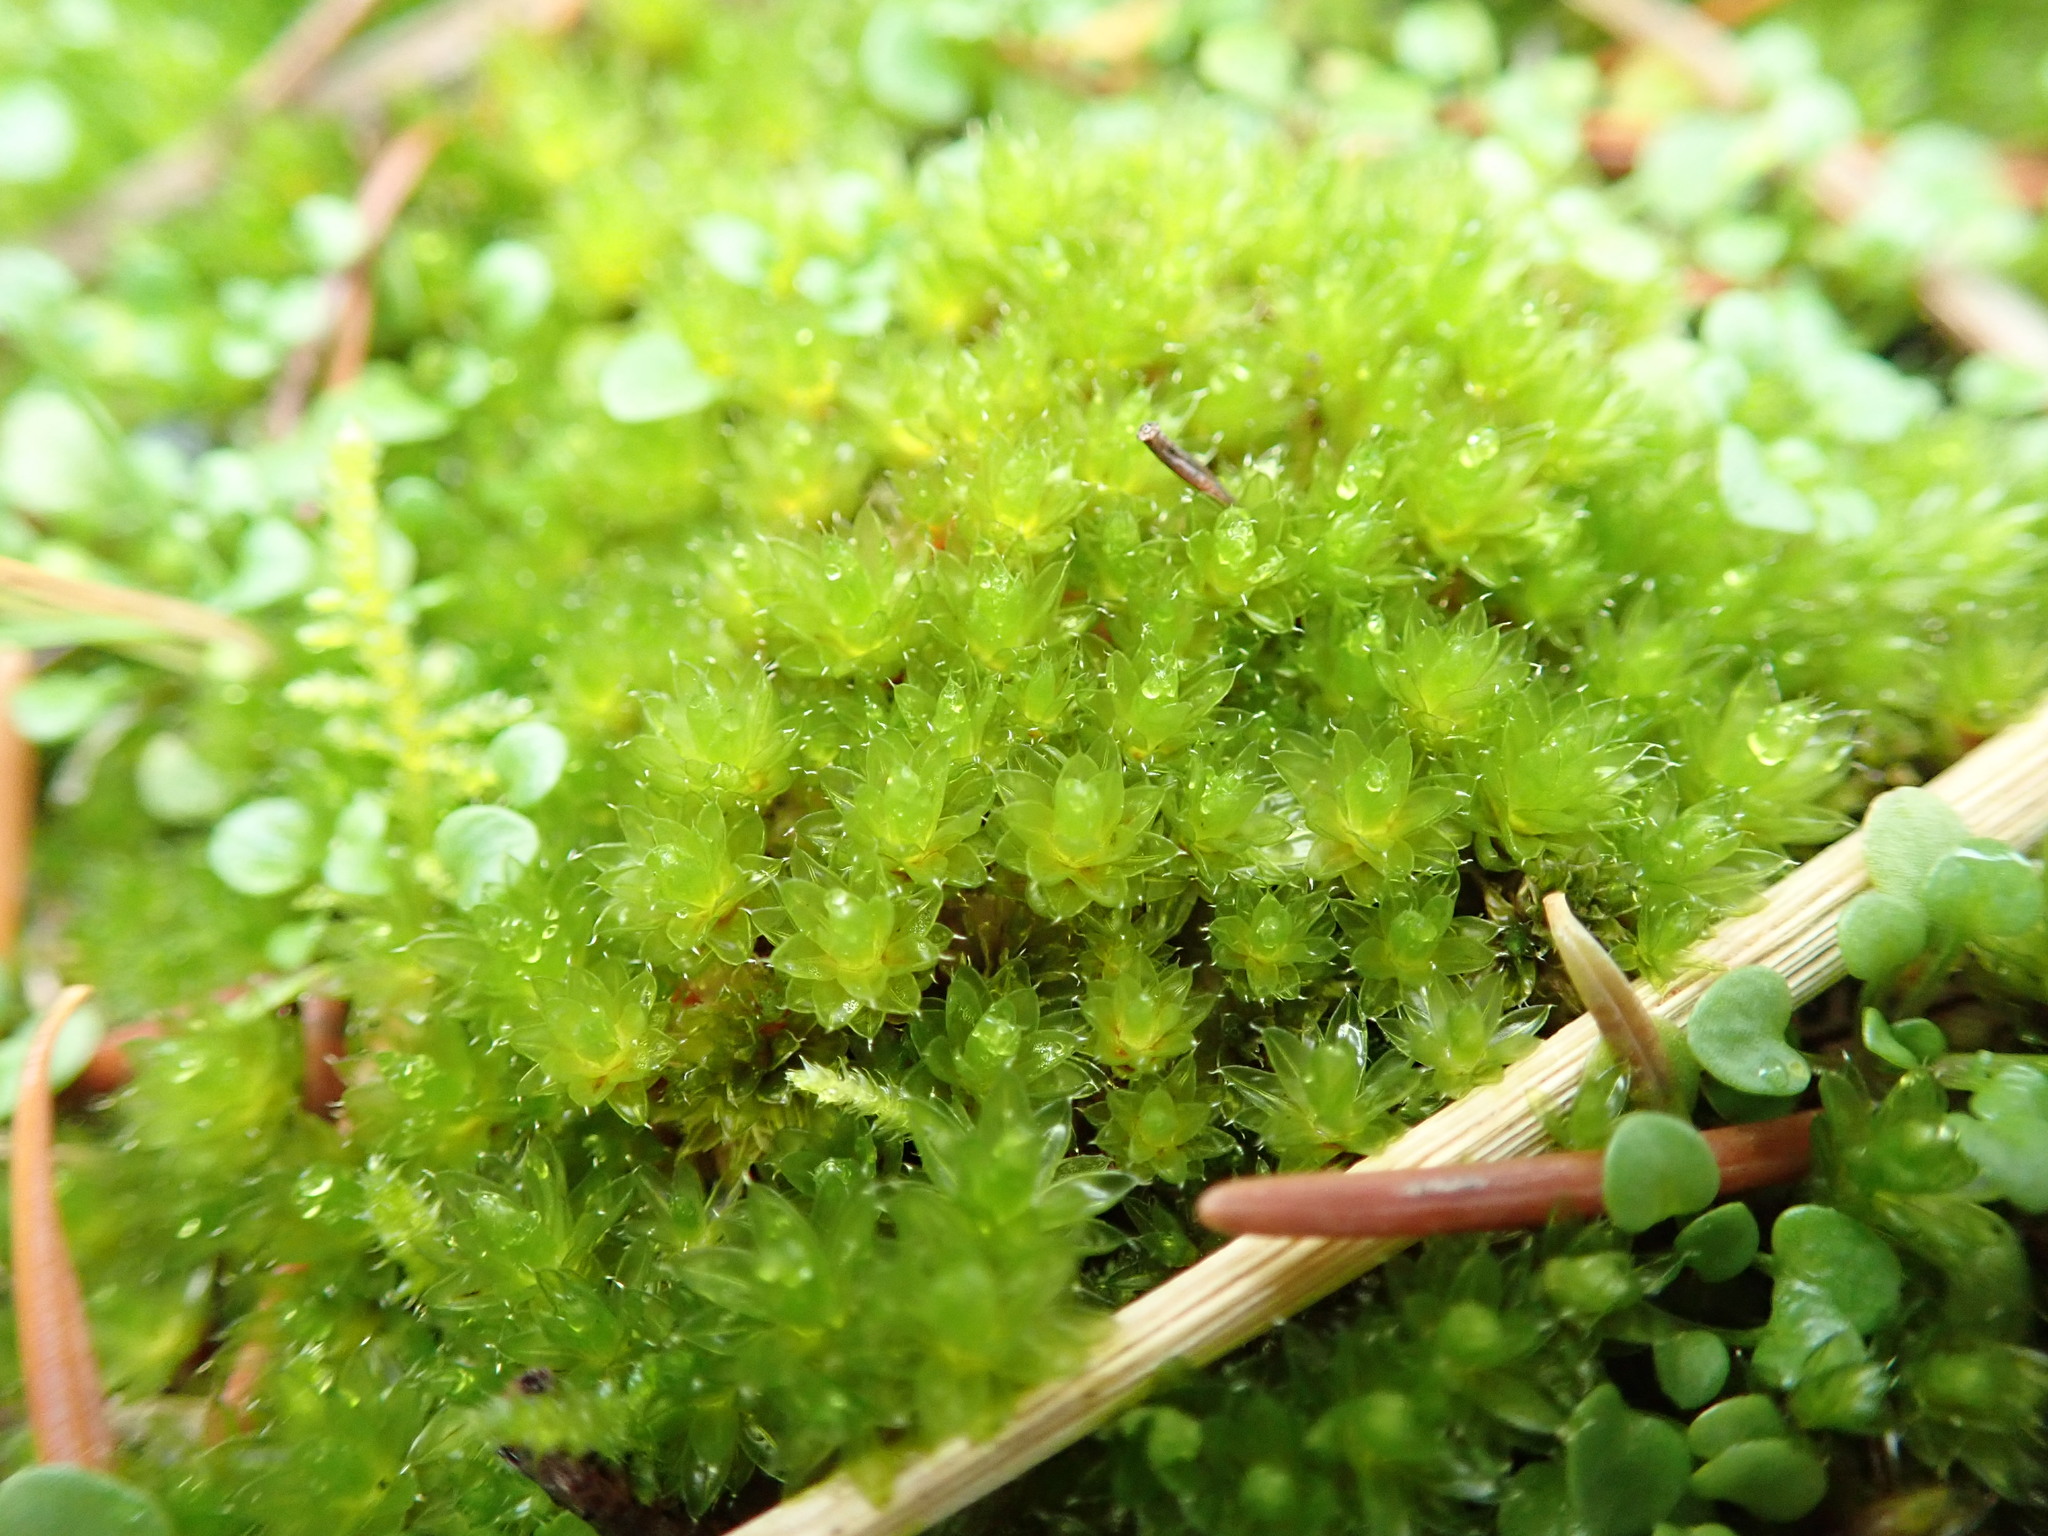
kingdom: Plantae
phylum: Bryophyta
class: Bryopsida
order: Bryales
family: Bryaceae
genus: Rosulabryum
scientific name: Rosulabryum capillare
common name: Capillary thread-moss
